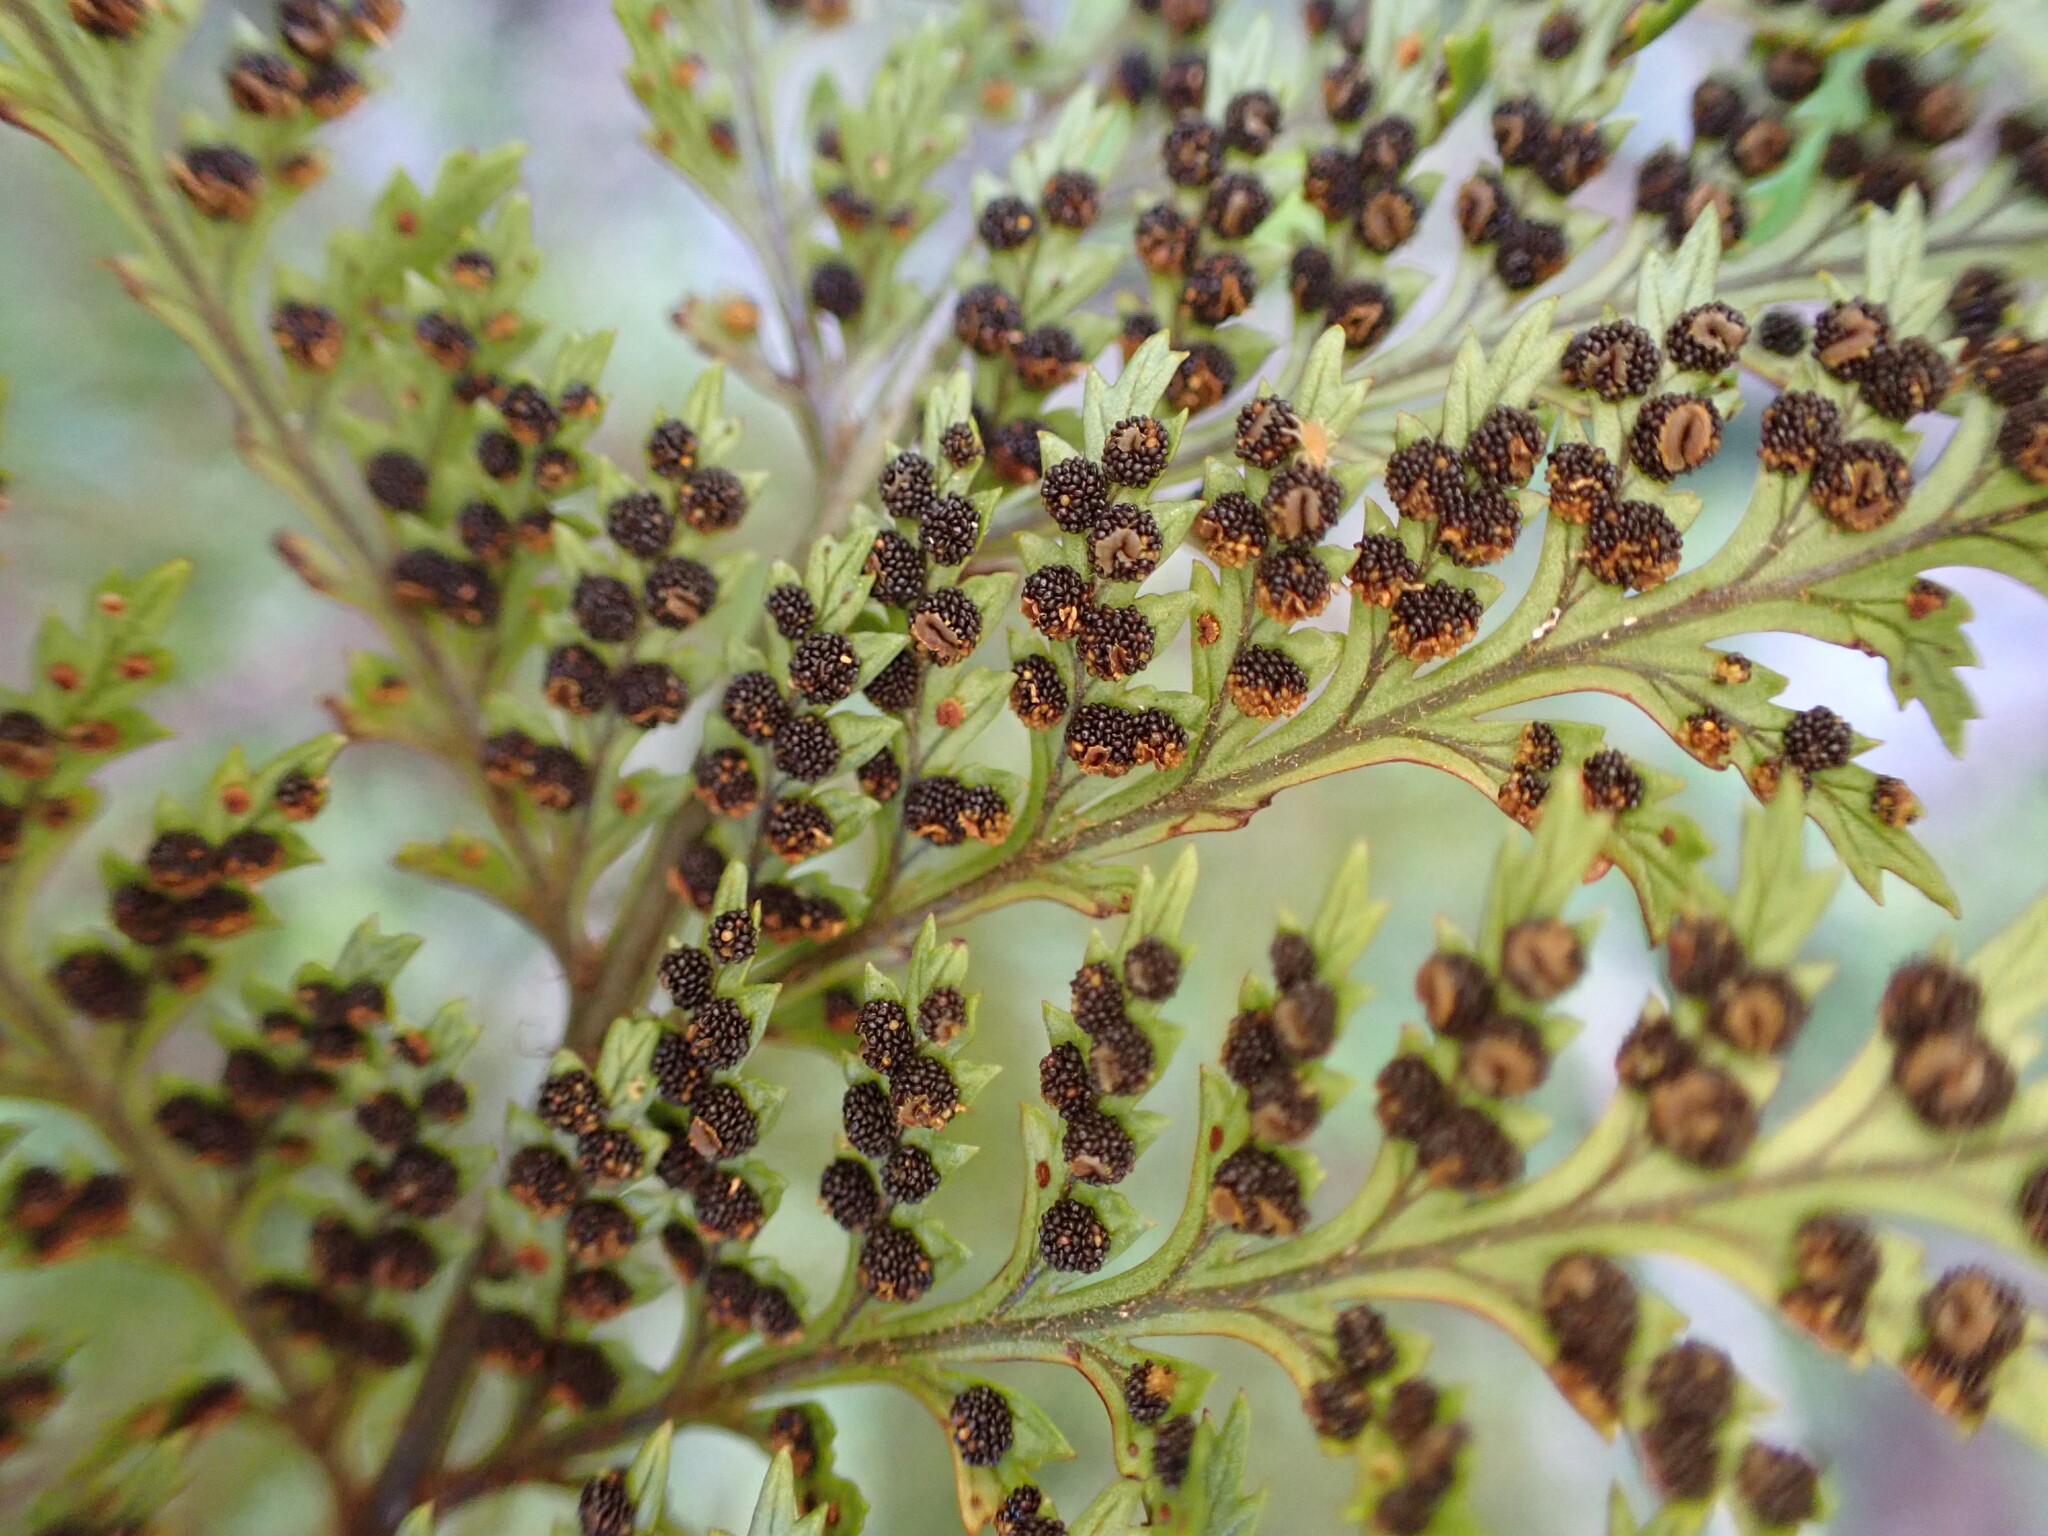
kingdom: Plantae
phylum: Tracheophyta
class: Polypodiopsida
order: Polypodiales
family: Dryopteridaceae
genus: Lastreopsis
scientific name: Lastreopsis hispida
